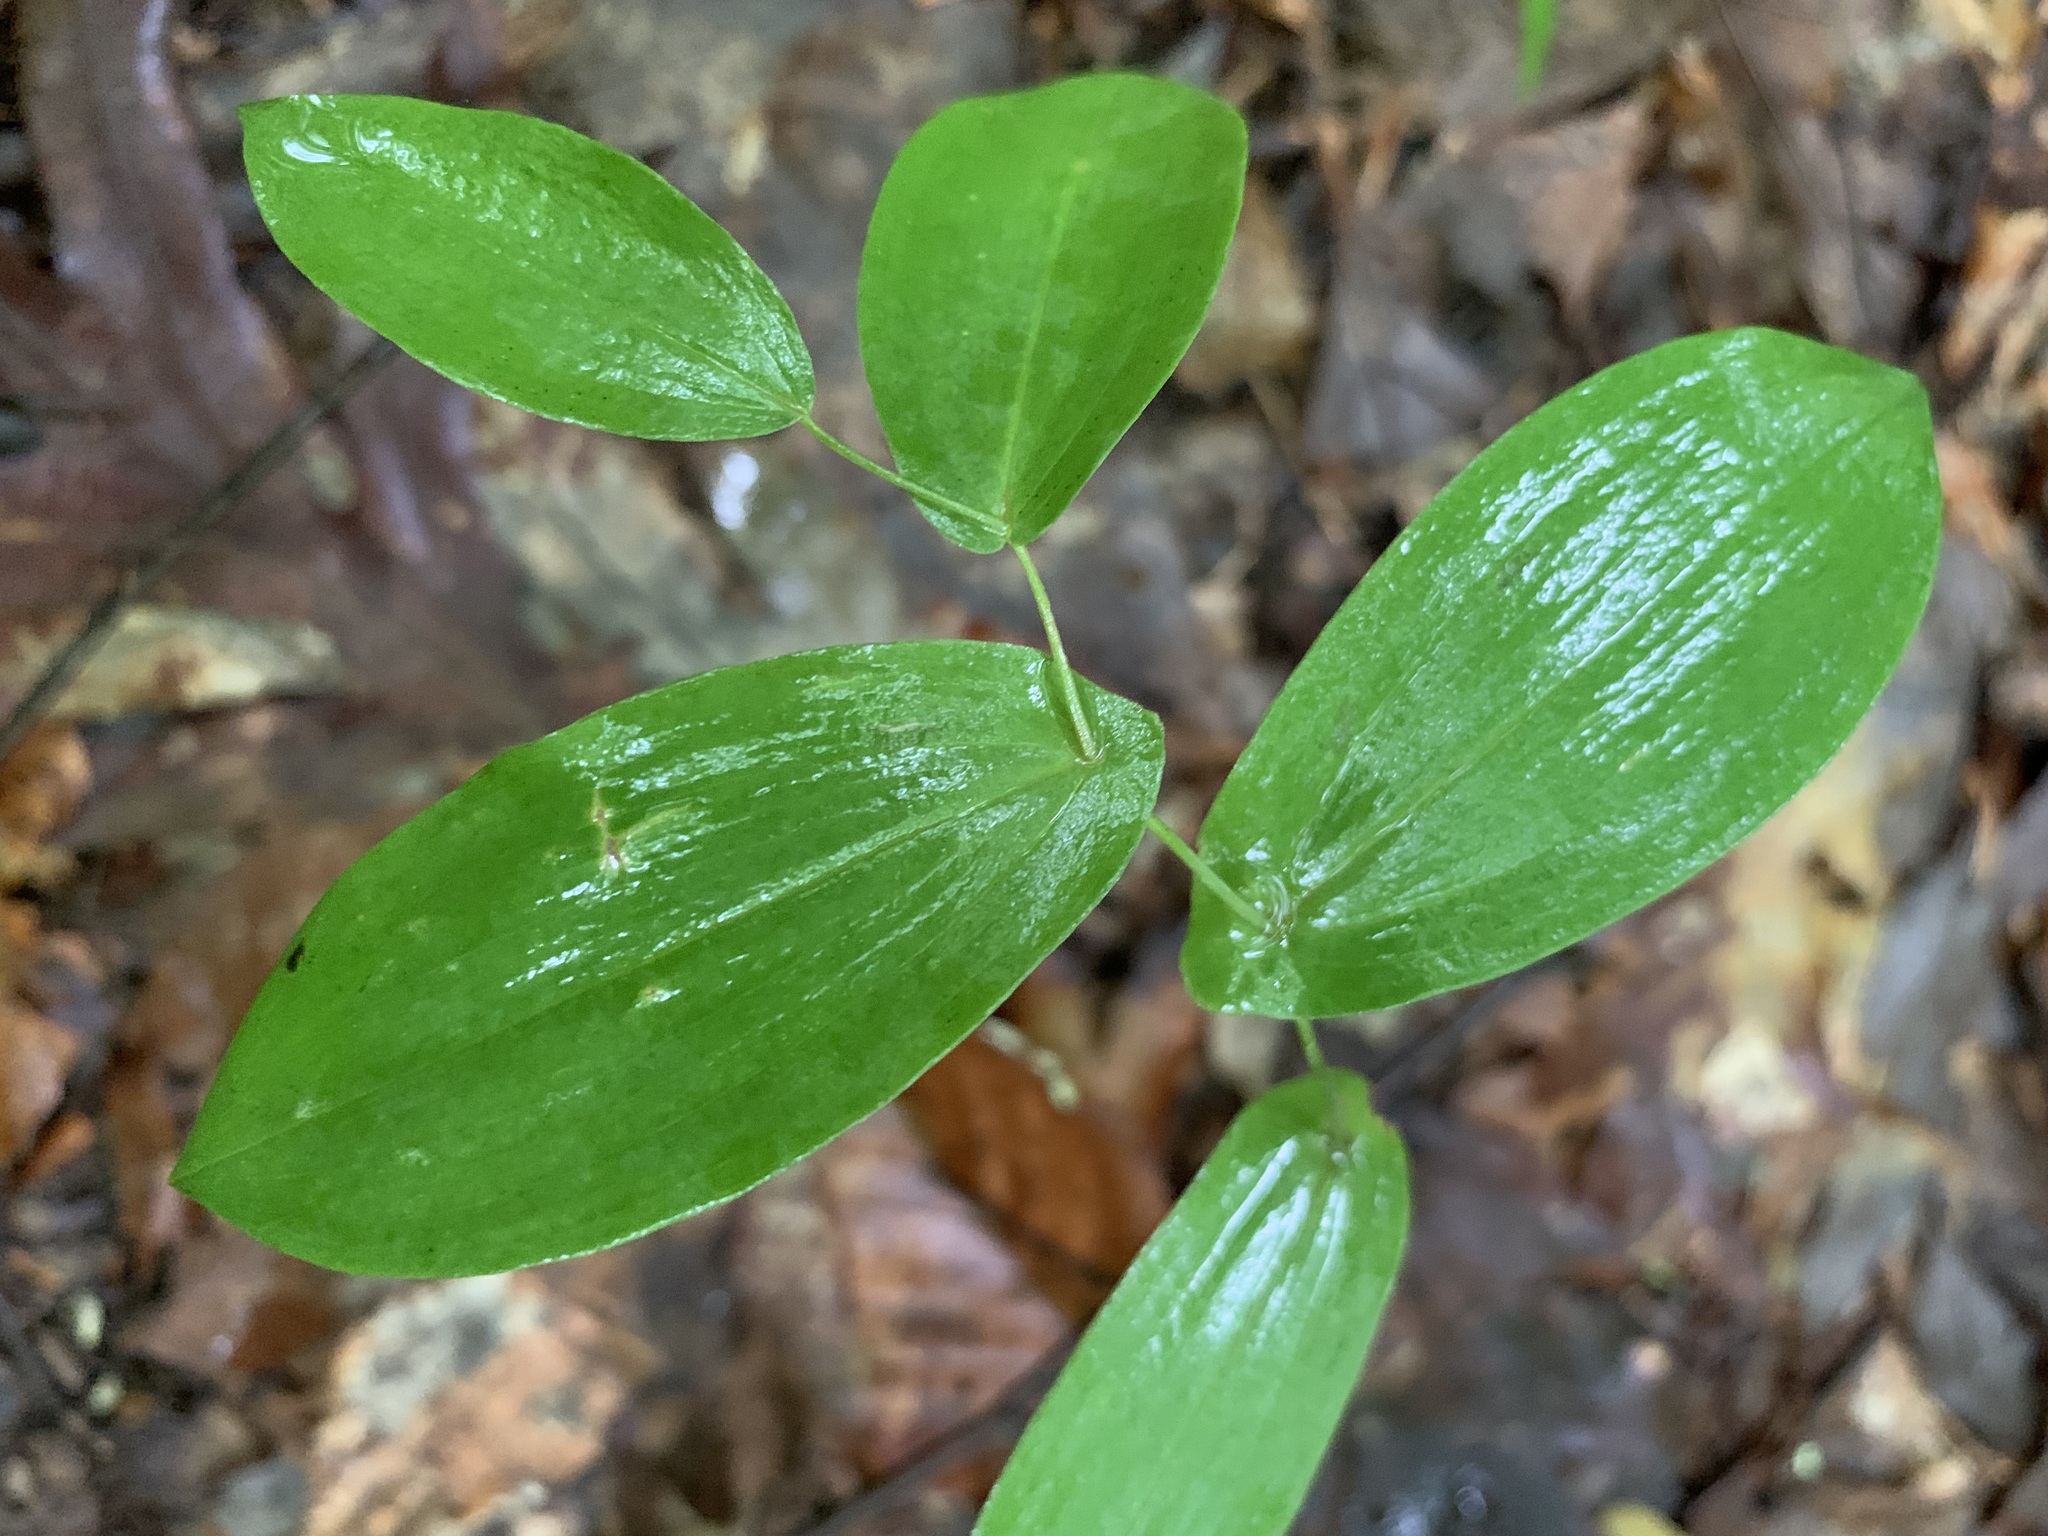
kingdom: Plantae
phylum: Tracheophyta
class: Liliopsida
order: Liliales
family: Colchicaceae
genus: Uvularia
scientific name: Uvularia perfoliata
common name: Perfoliate bellwort
